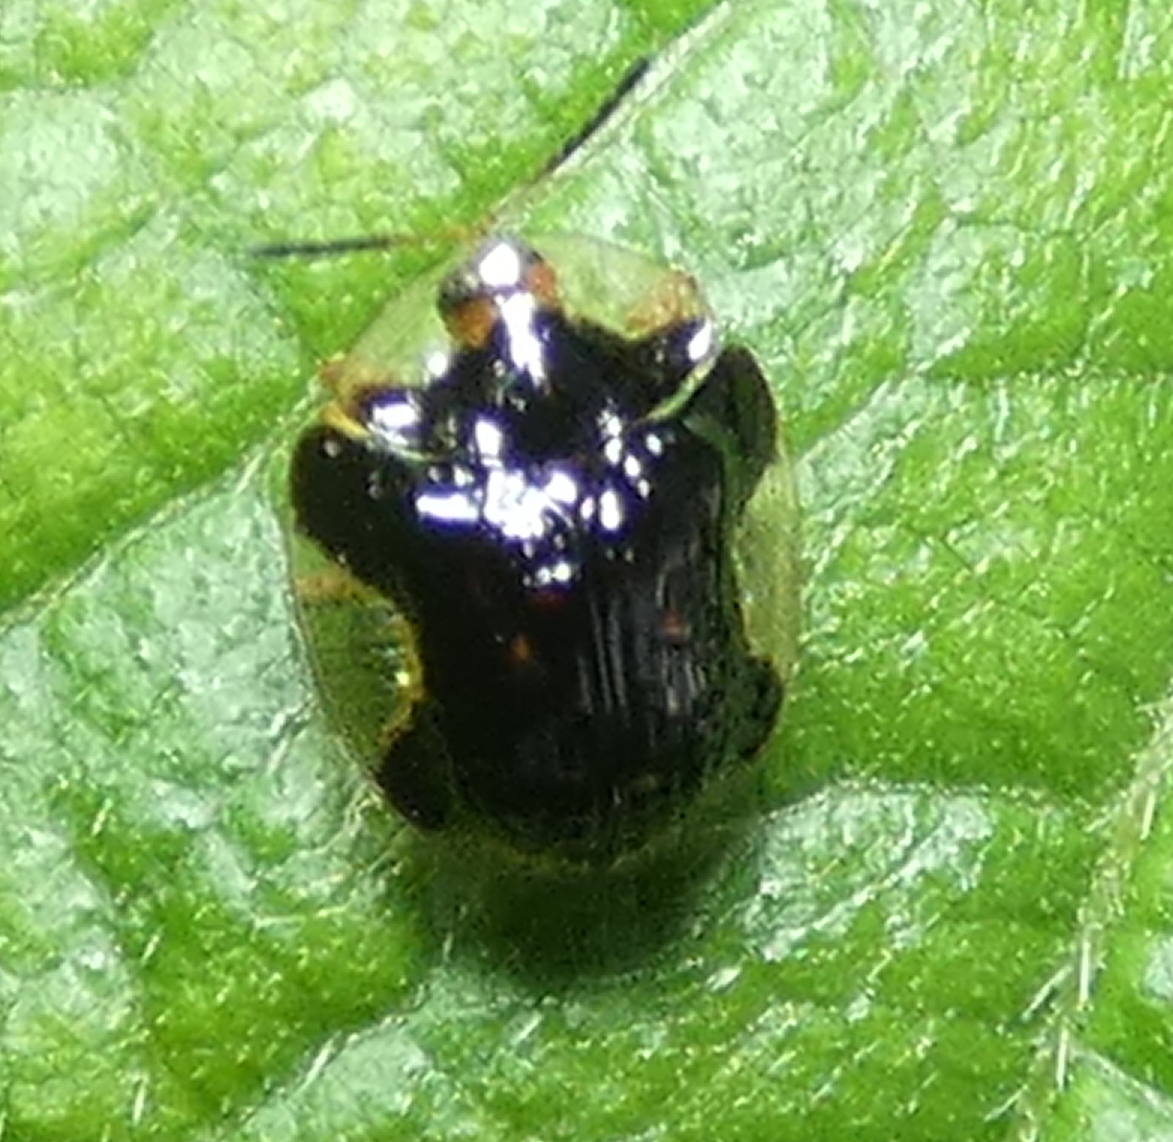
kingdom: Animalia
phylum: Arthropoda
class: Insecta
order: Coleoptera
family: Chrysomelidae
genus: Cteisella
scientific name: Cteisella ramosa
